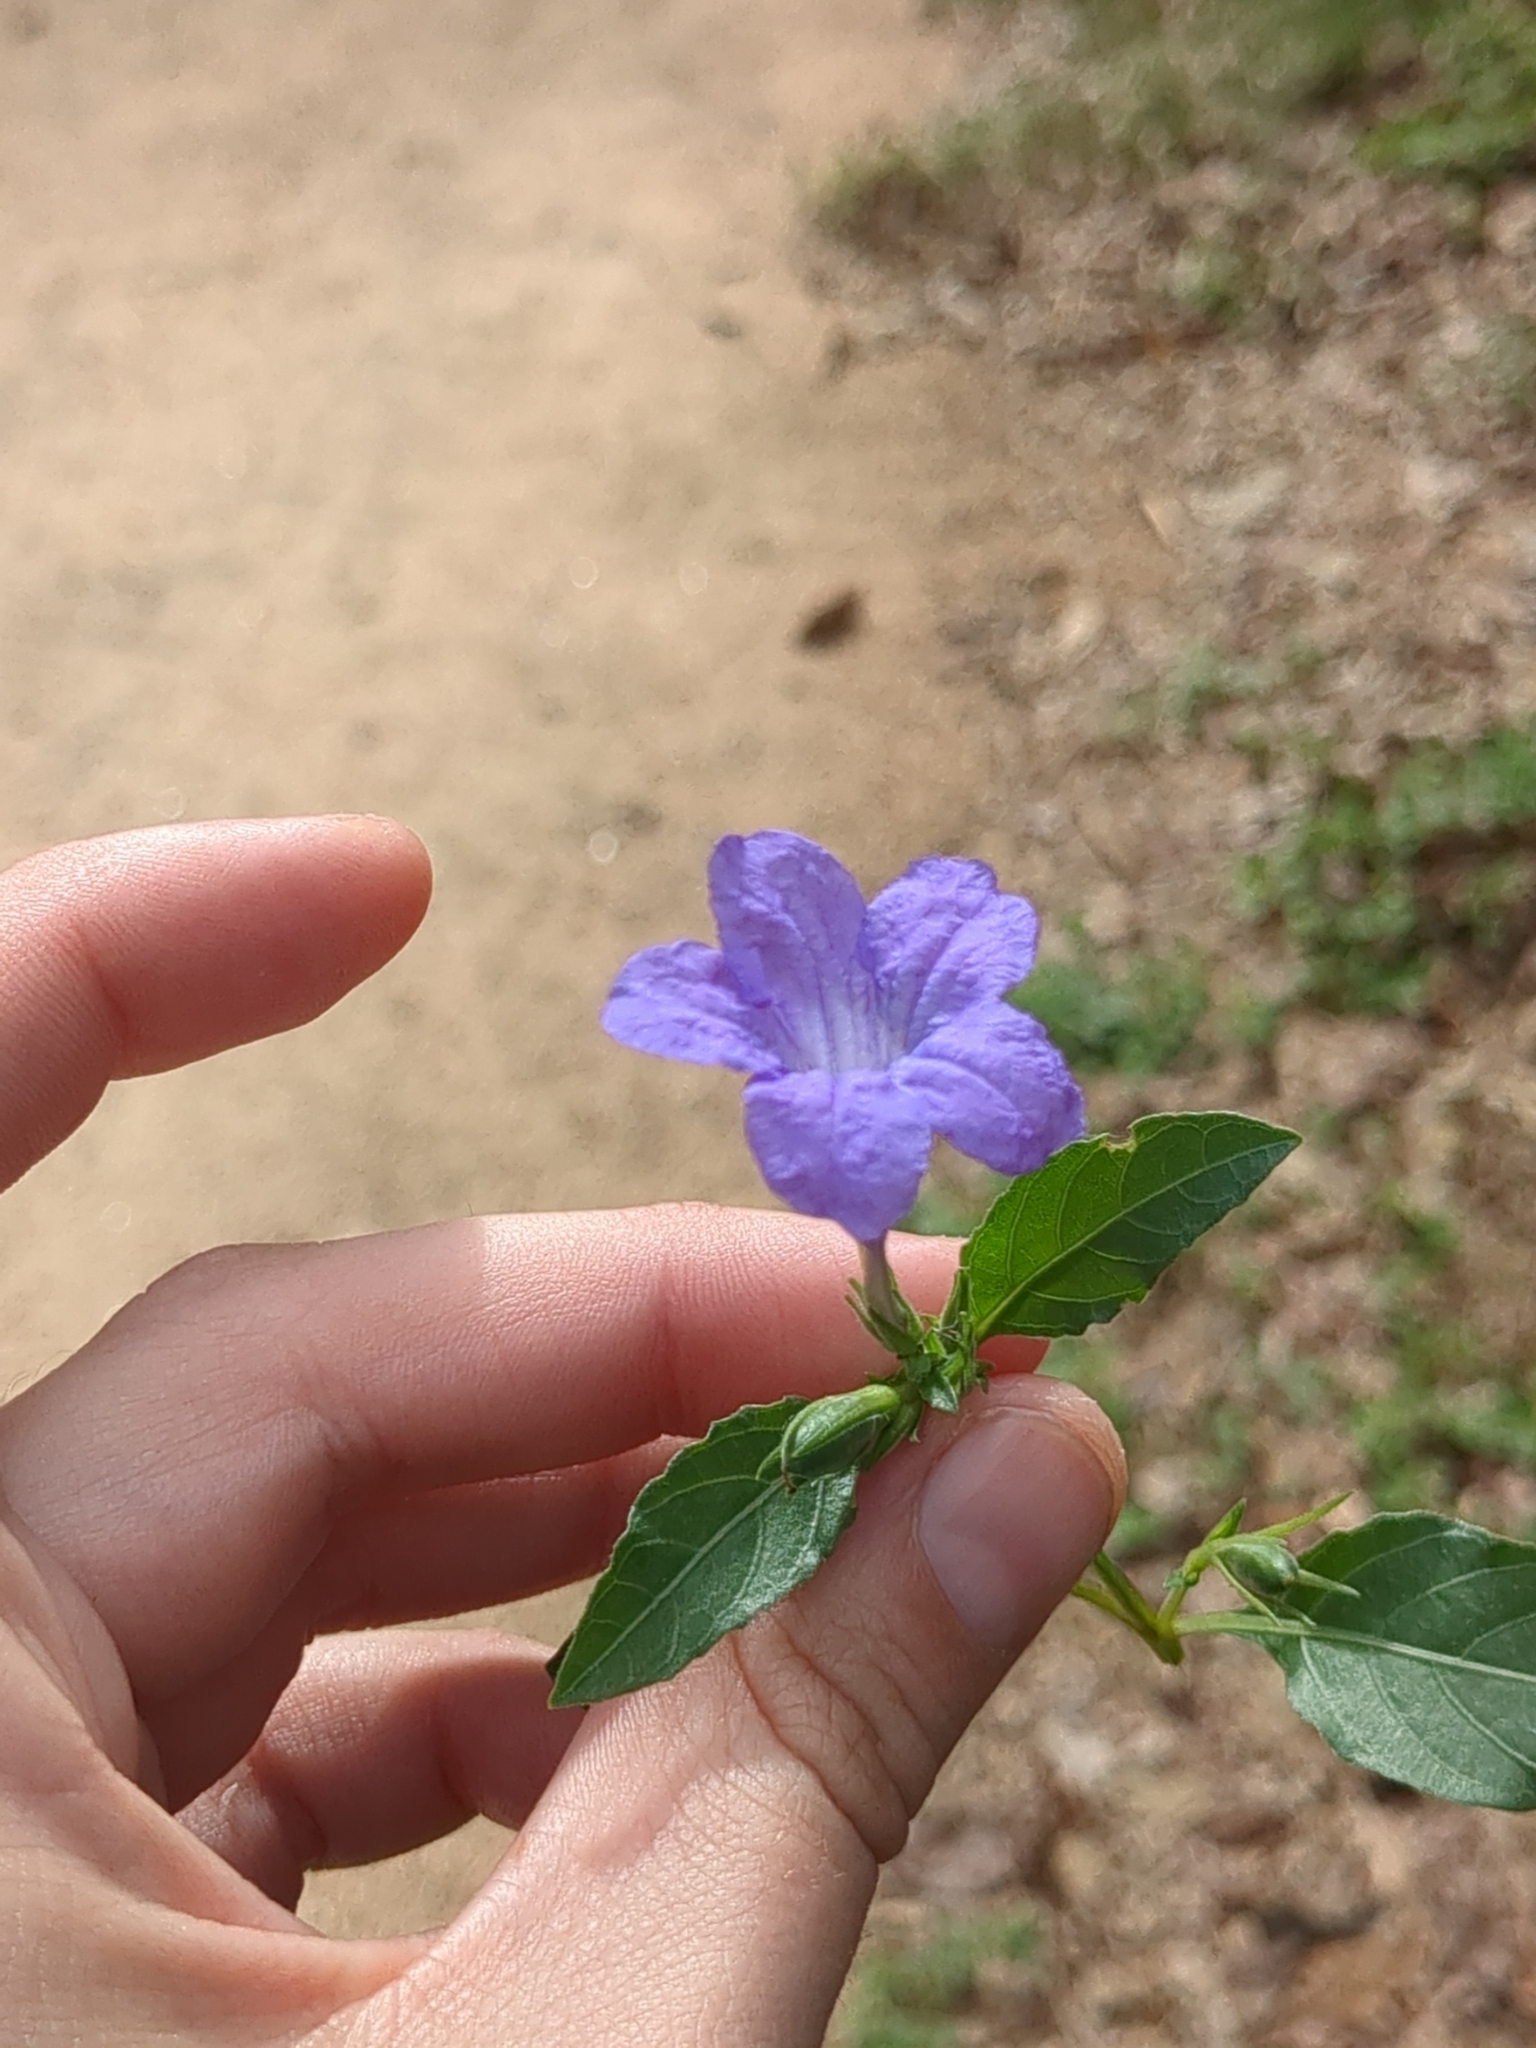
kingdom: Plantae
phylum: Tracheophyta
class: Magnoliopsida
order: Lamiales
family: Acanthaceae
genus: Ruellia
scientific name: Ruellia ciliatiflora
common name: Hairyflower wild petunia
